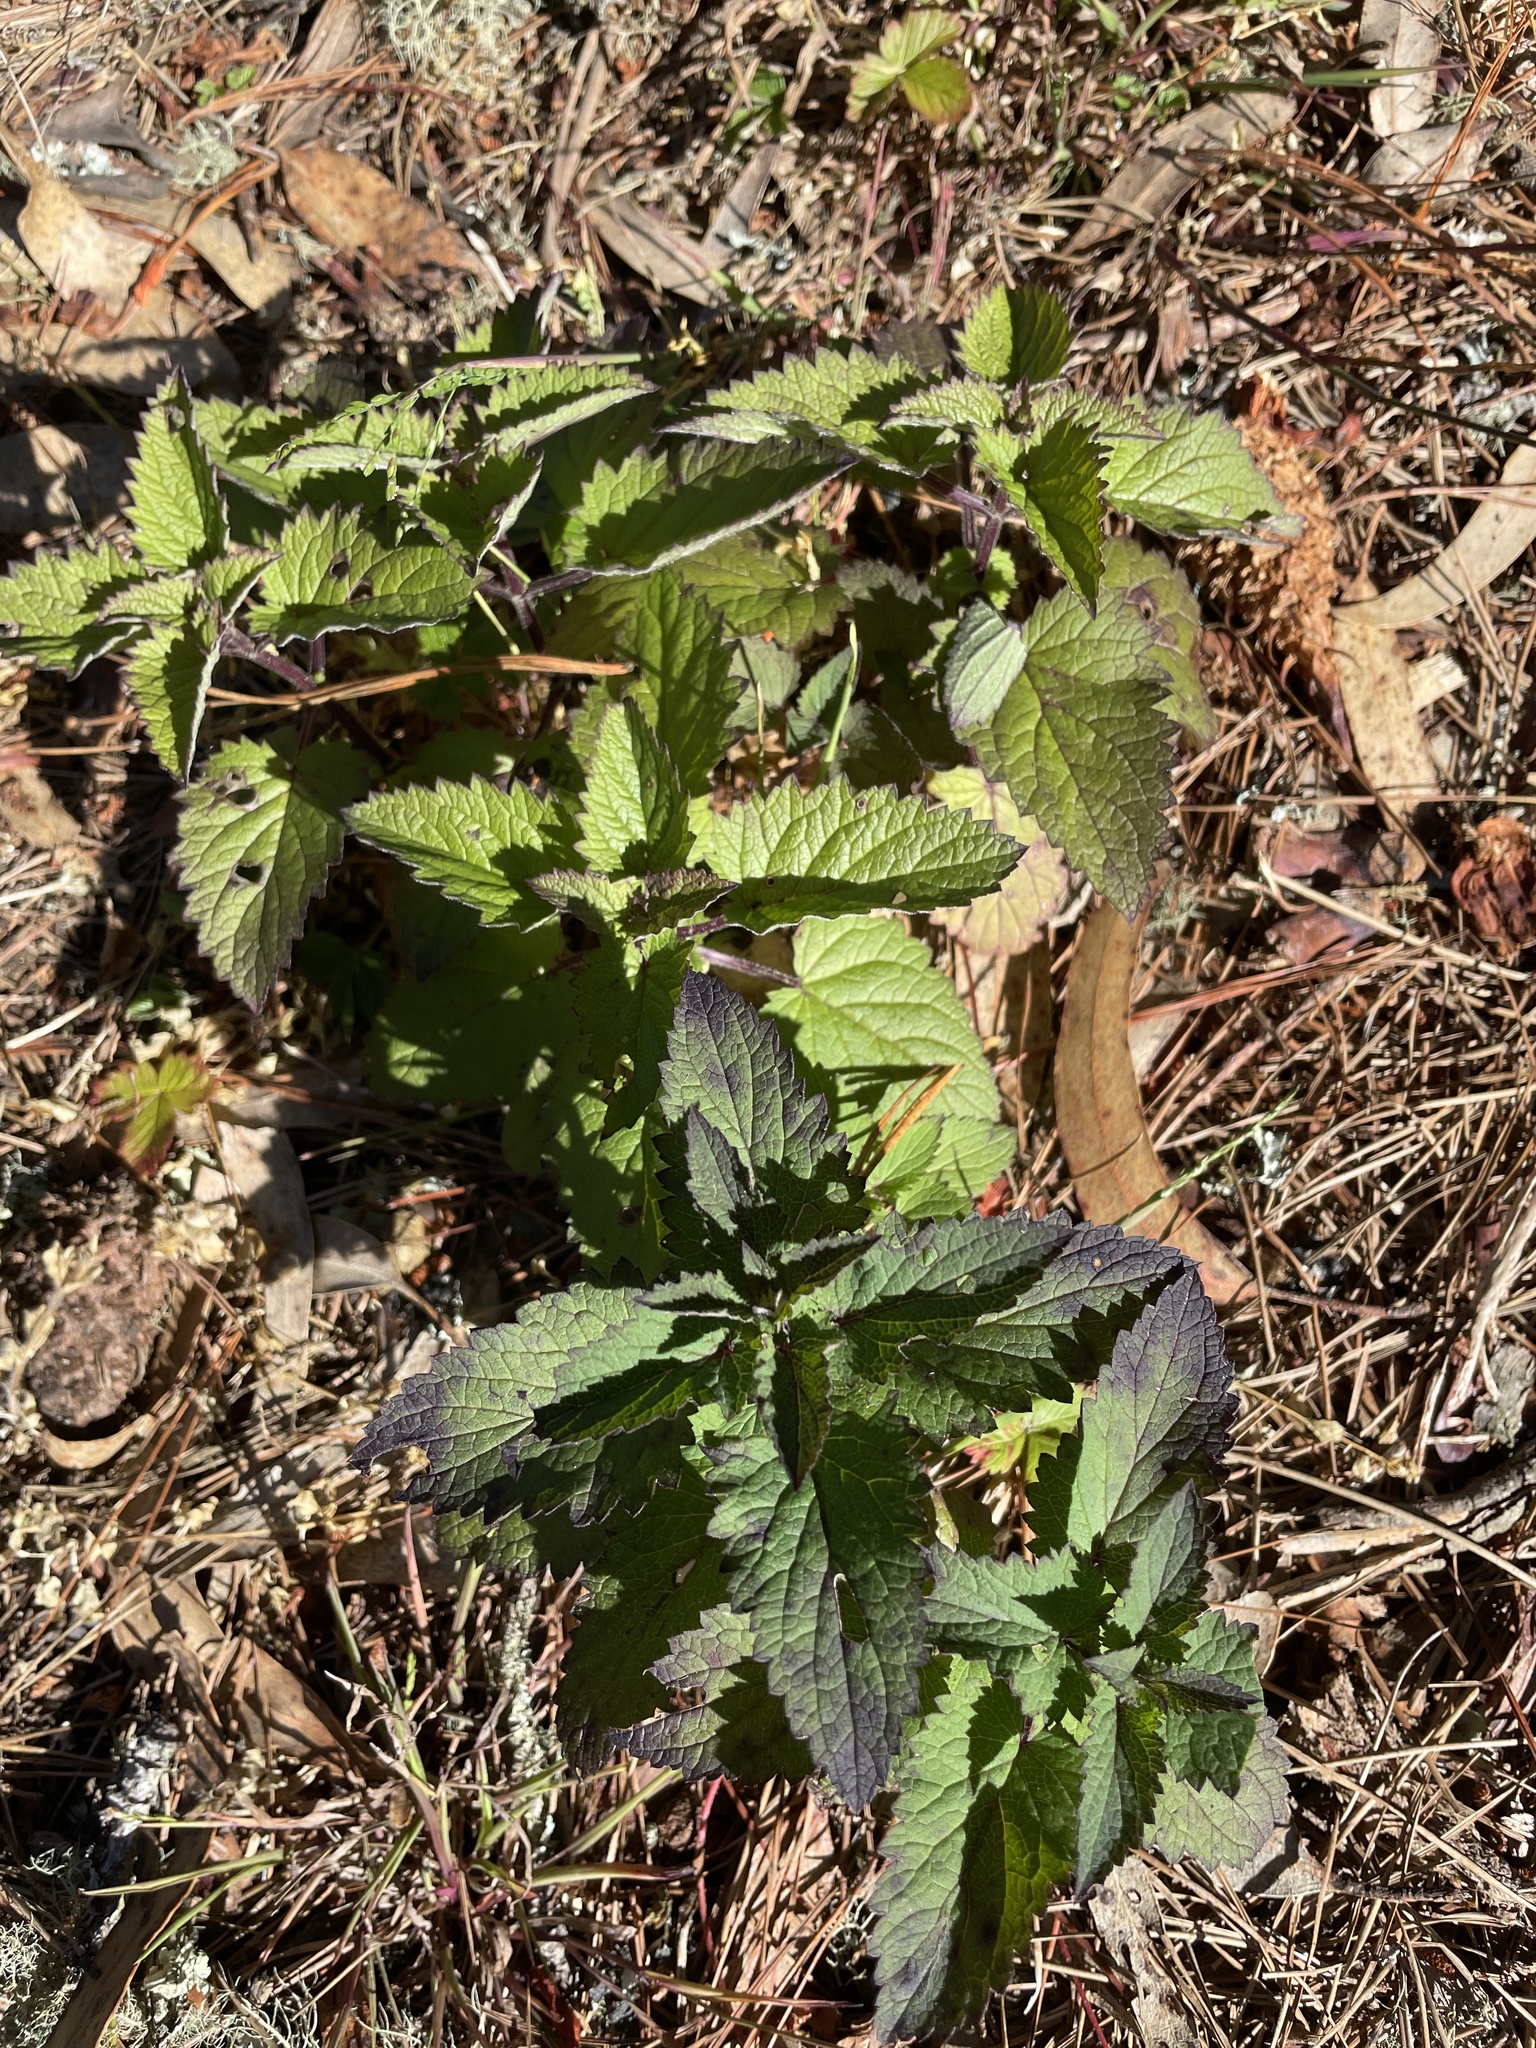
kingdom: Plantae
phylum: Tracheophyta
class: Magnoliopsida
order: Lamiales
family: Scrophulariaceae
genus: Scrophularia
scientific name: Scrophularia californica
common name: California figwort
